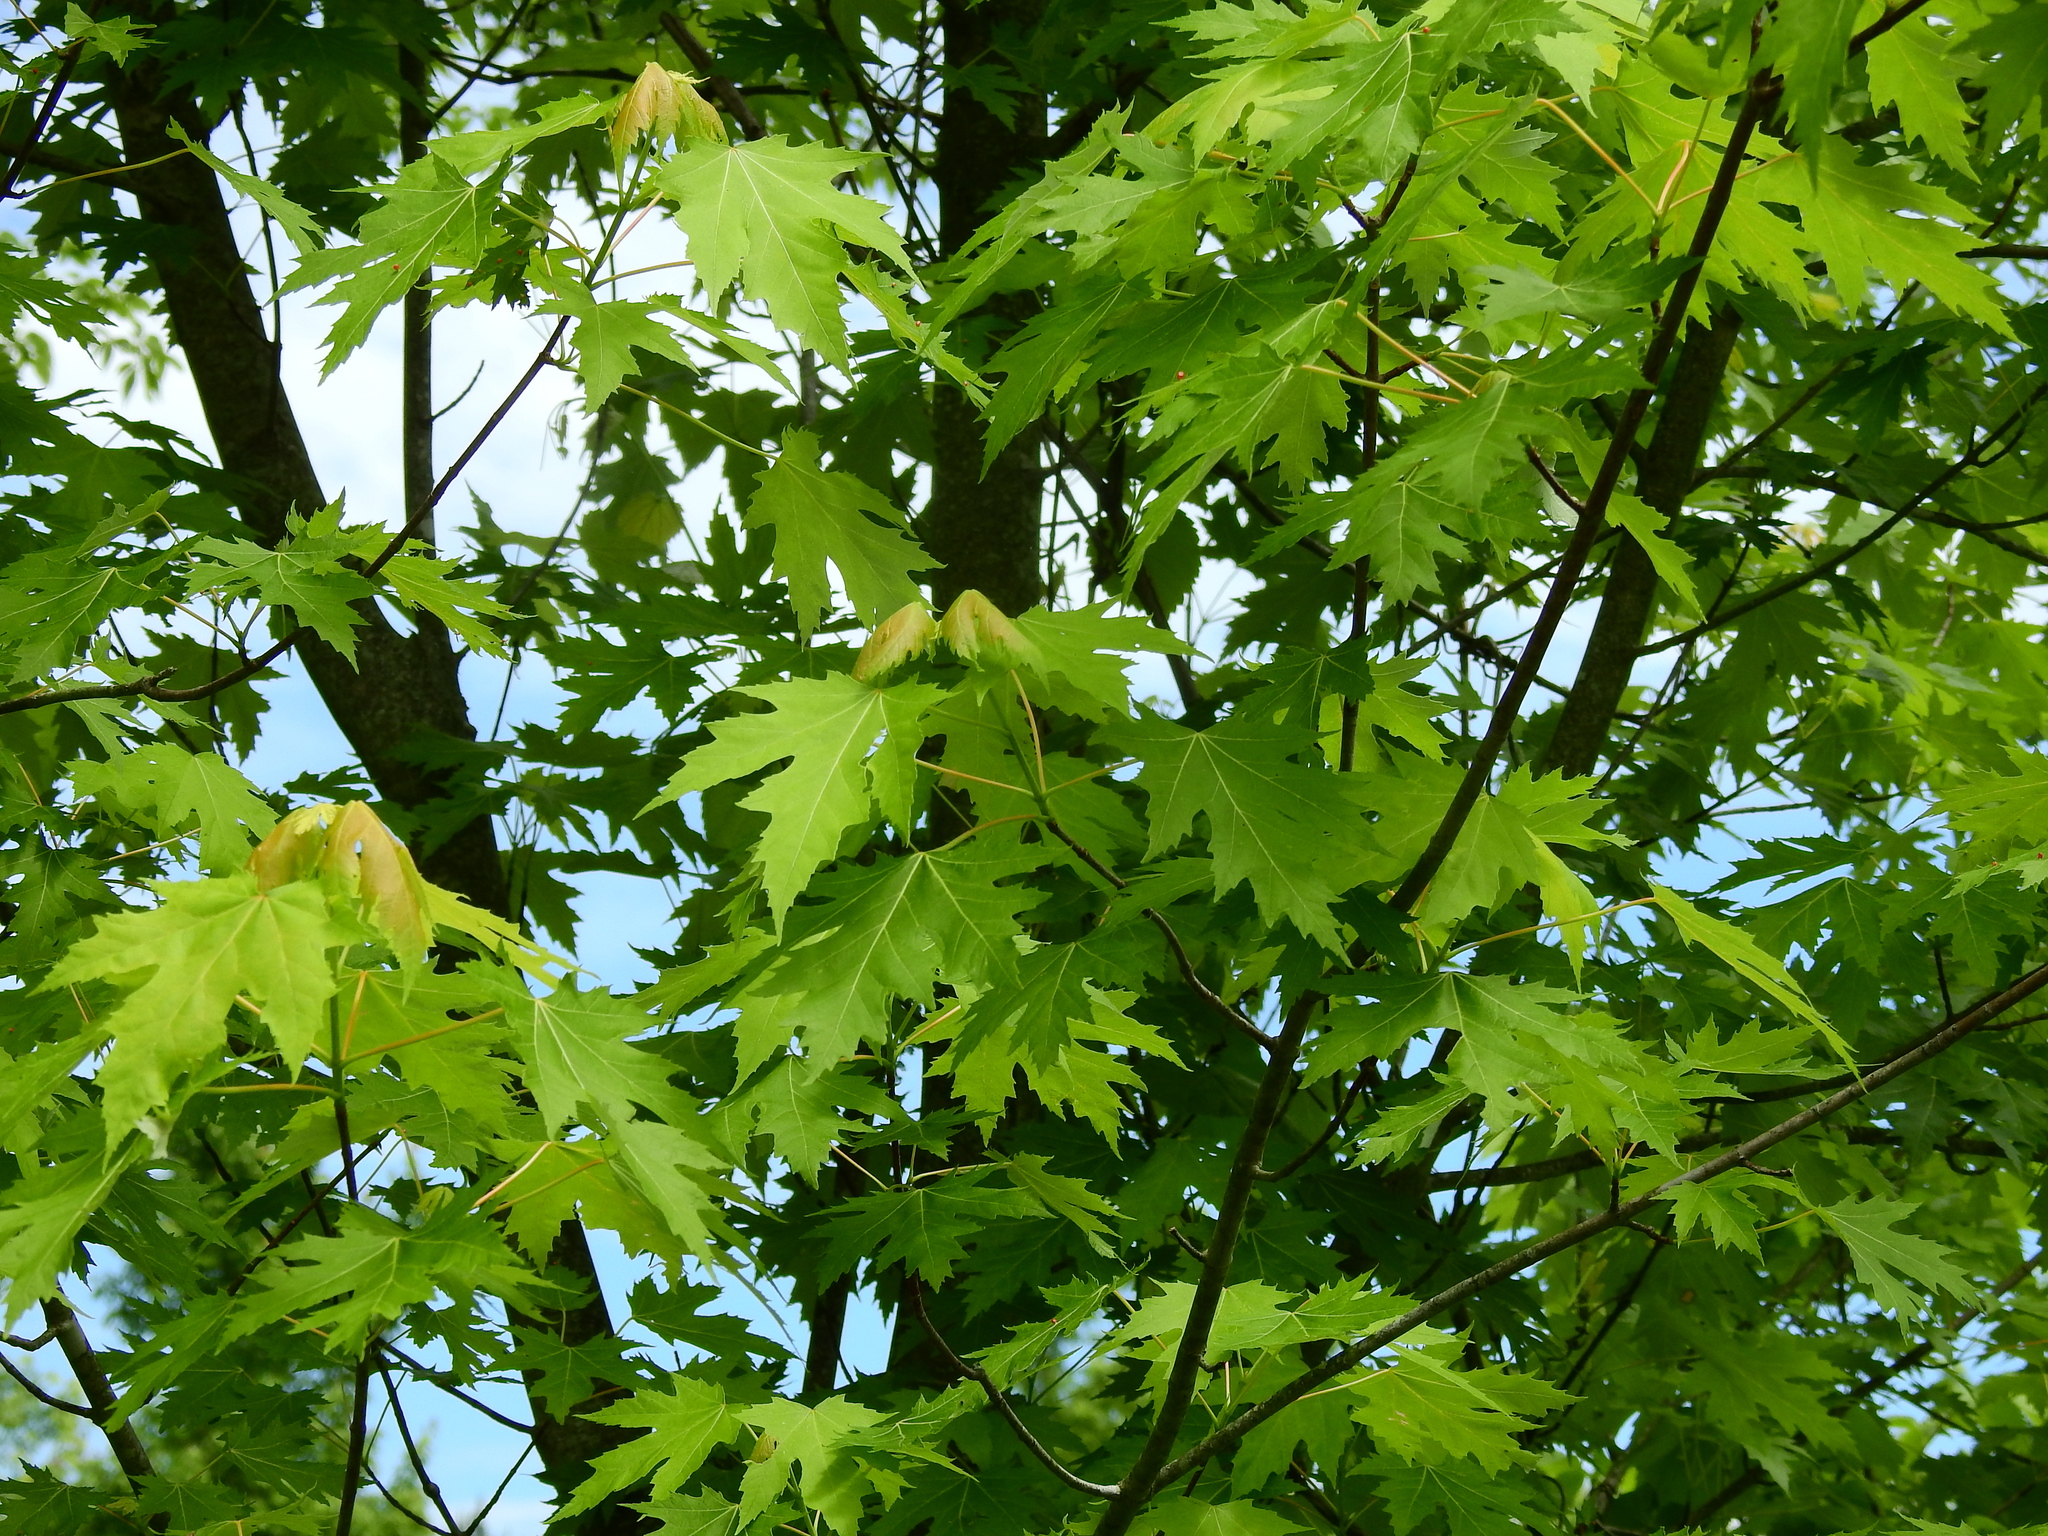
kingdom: Plantae
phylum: Tracheophyta
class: Magnoliopsida
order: Sapindales
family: Sapindaceae
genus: Acer
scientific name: Acer saccharinum
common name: Silver maple
